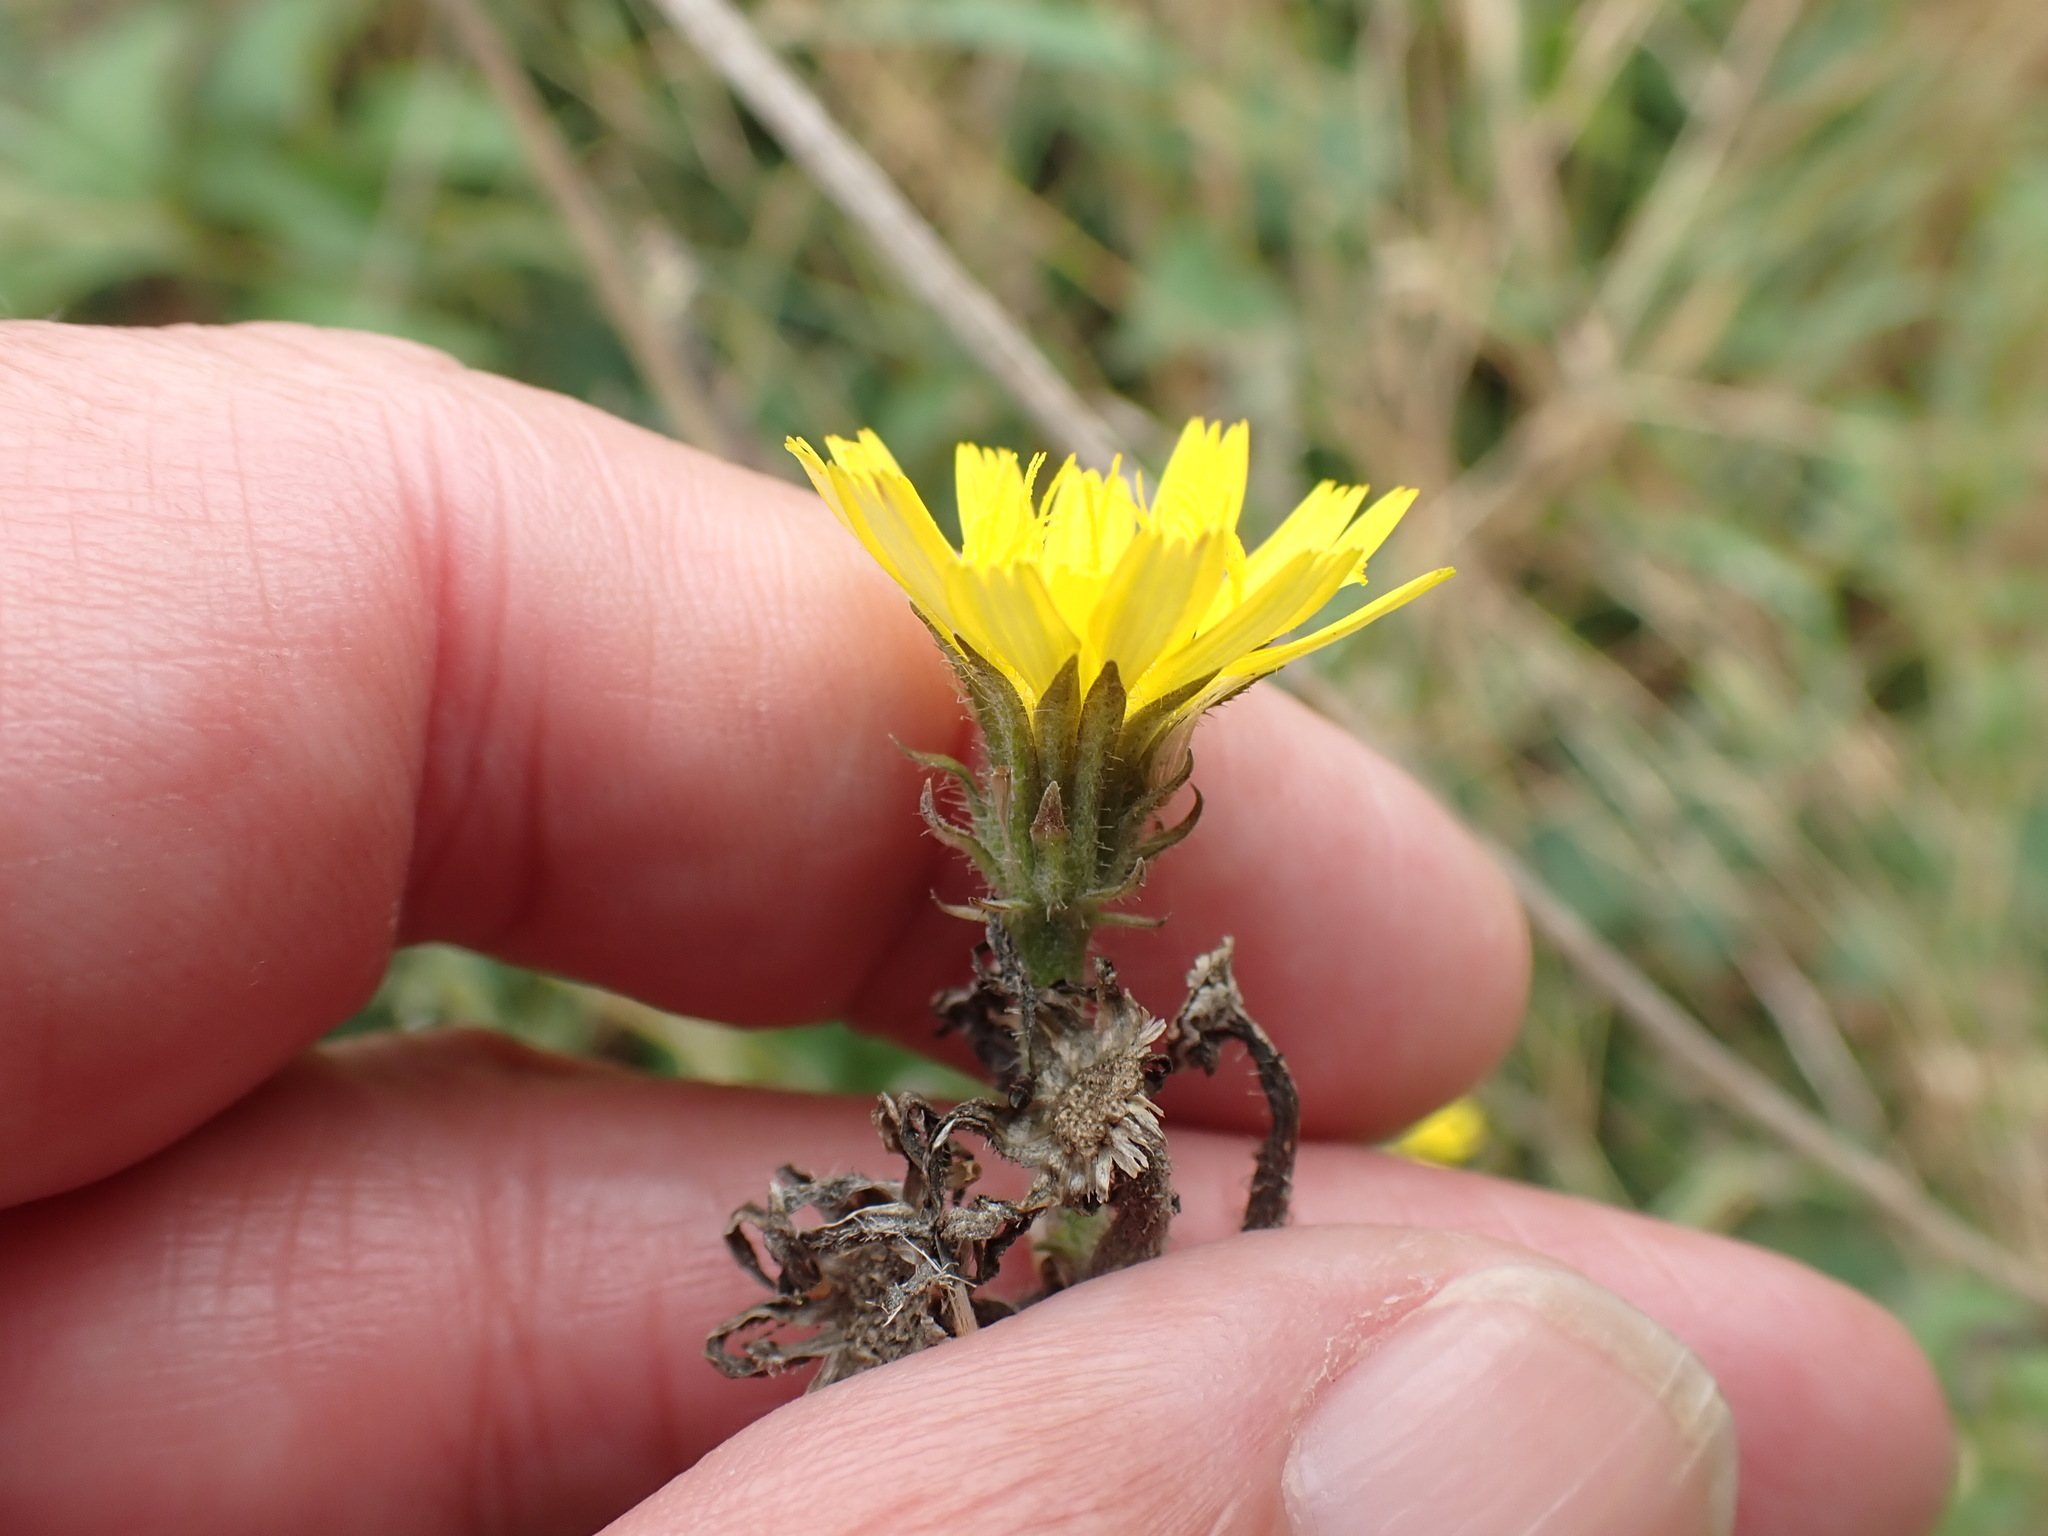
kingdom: Plantae
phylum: Tracheophyta
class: Magnoliopsida
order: Asterales
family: Asteraceae
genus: Picris
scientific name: Picris hieracioides
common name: Hawkweed oxtongue
